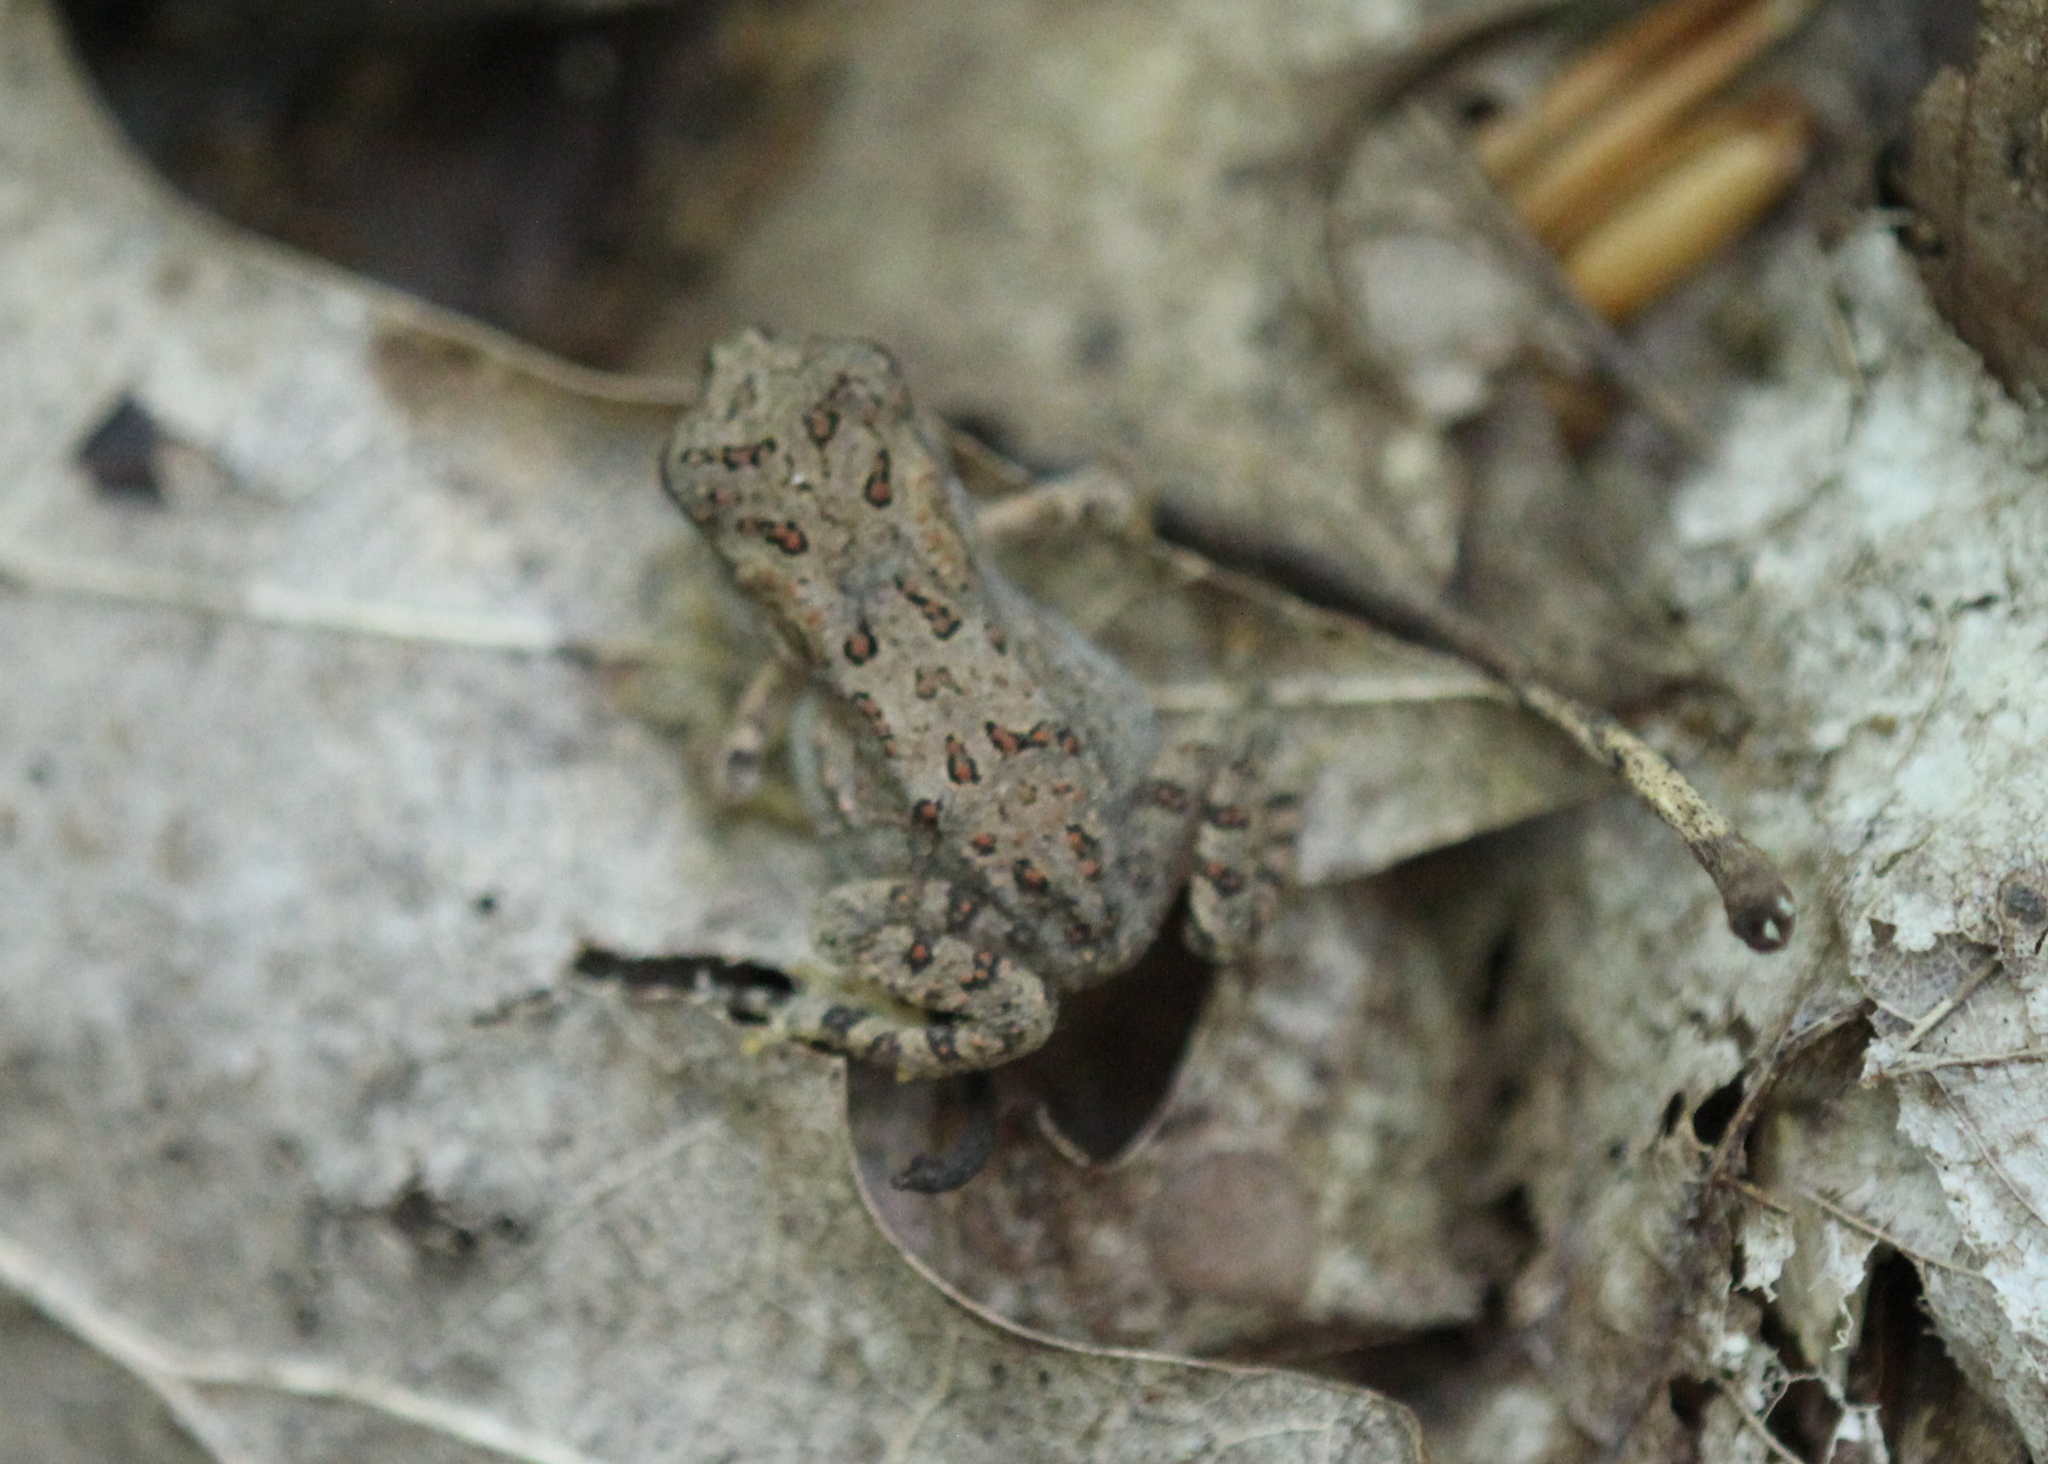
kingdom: Animalia
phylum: Chordata
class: Amphibia
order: Anura
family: Bufonidae
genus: Anaxyrus
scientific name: Anaxyrus americanus
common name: American toad
